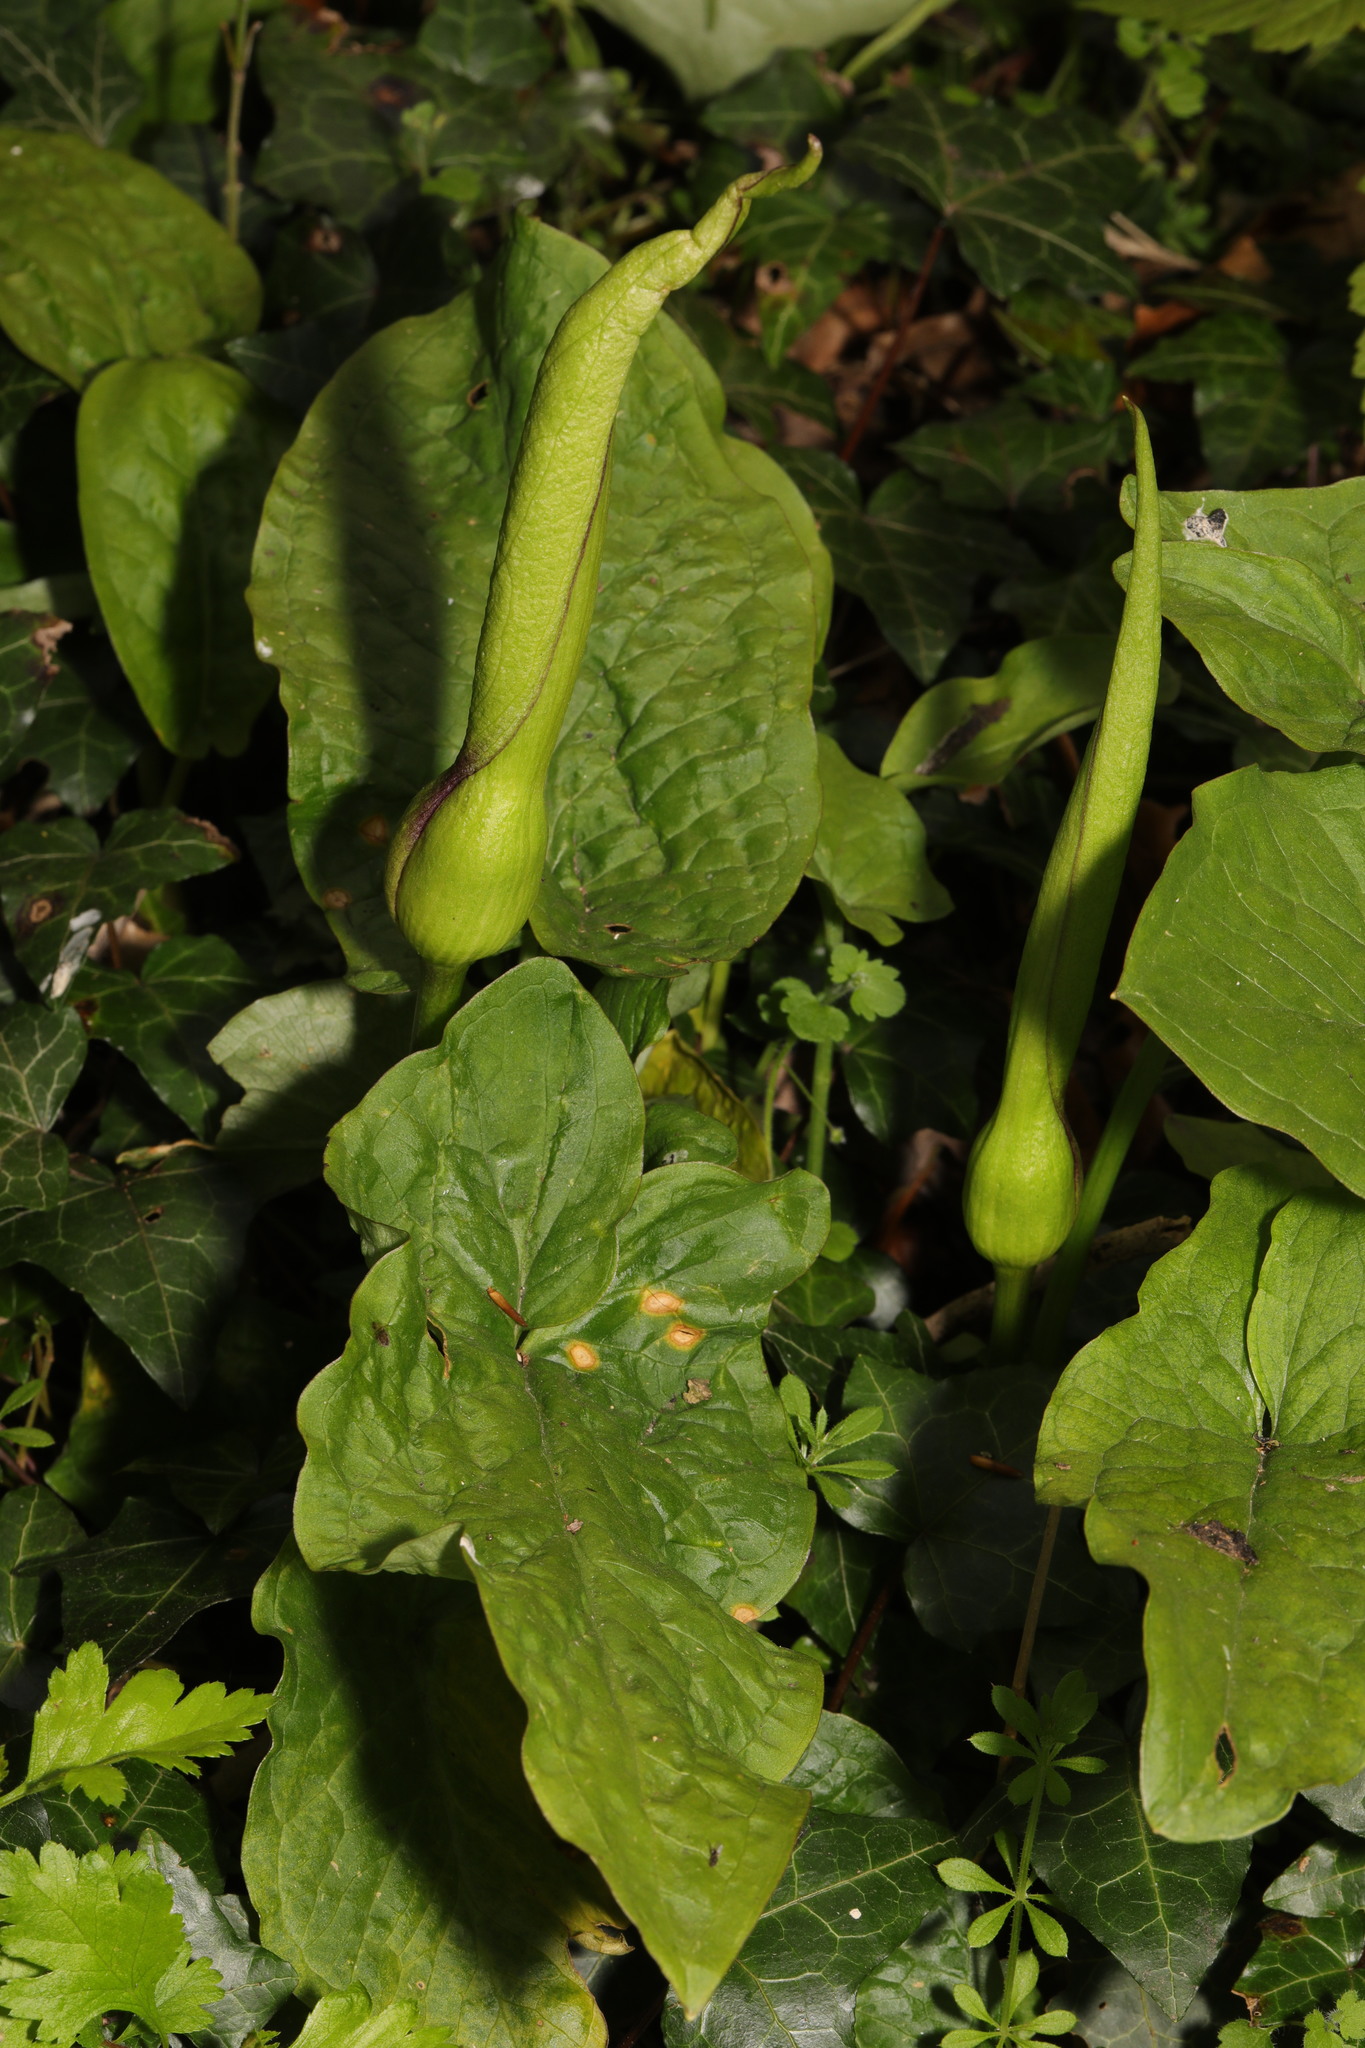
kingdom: Plantae
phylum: Tracheophyta
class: Liliopsida
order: Alismatales
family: Araceae
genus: Arum
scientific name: Arum maculatum
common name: Lords-and-ladies
